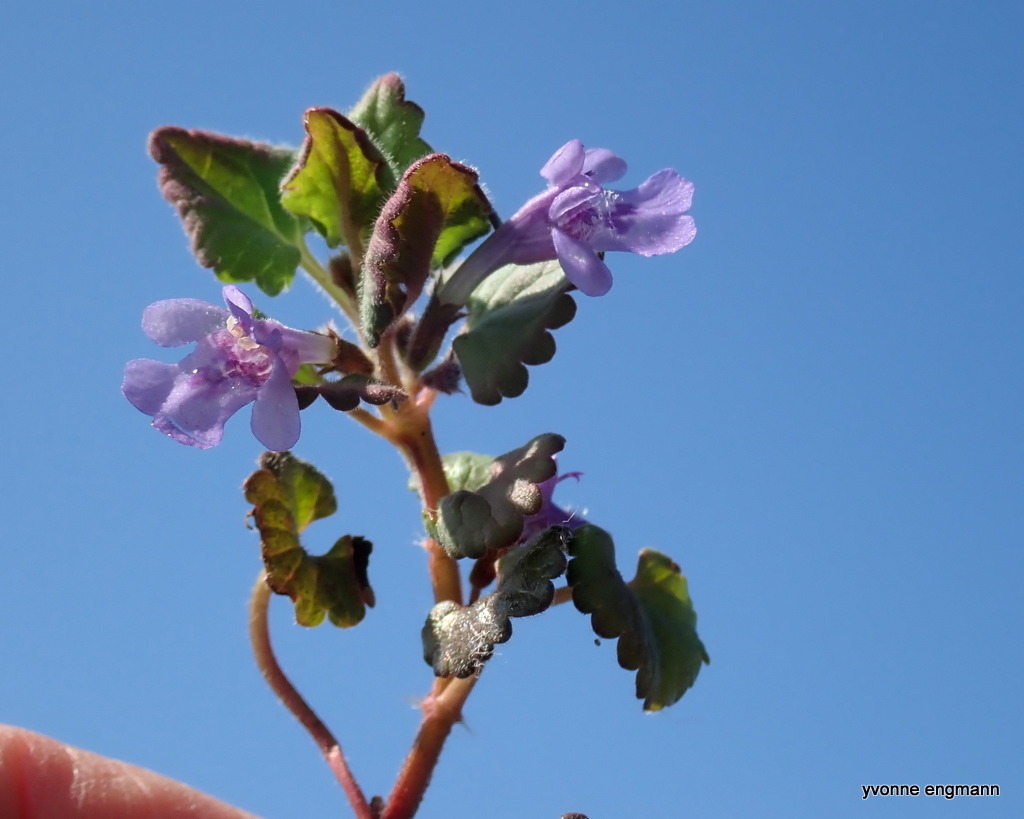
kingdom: Plantae
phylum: Tracheophyta
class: Magnoliopsida
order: Lamiales
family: Lamiaceae
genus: Glechoma
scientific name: Glechoma hederacea
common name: Ground ivy
